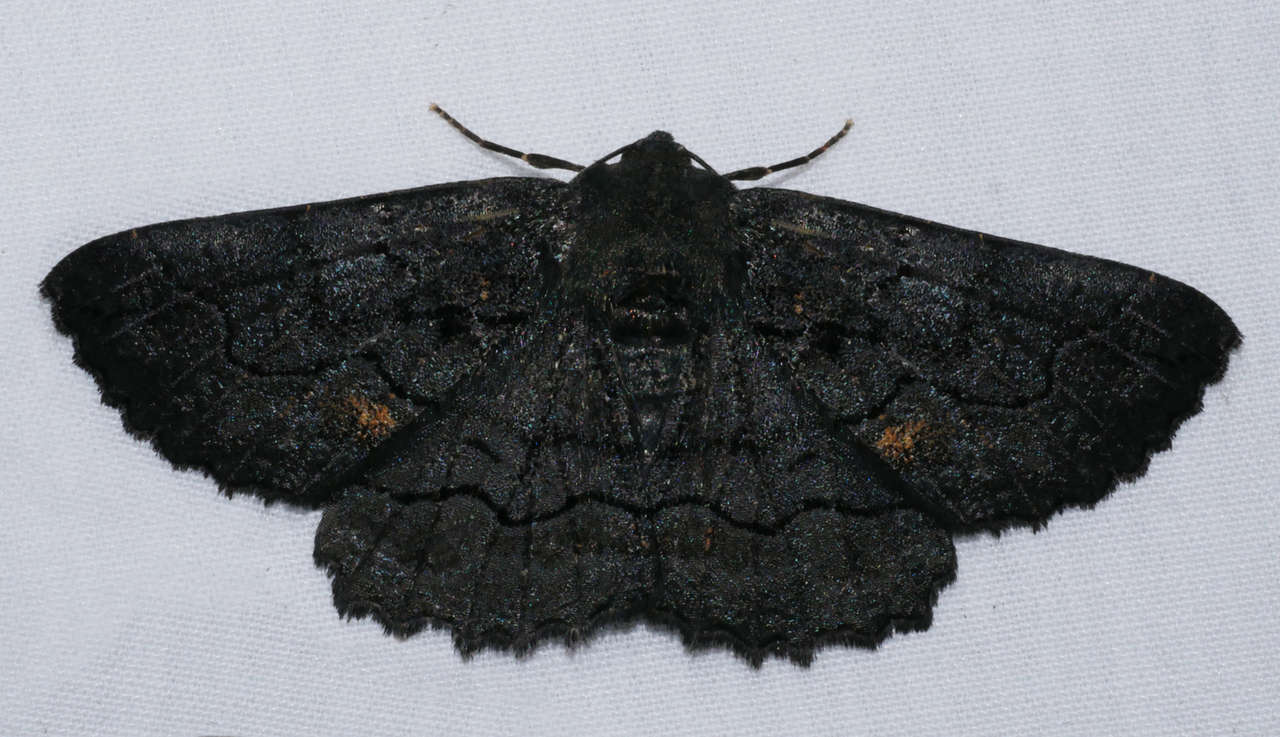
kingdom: Animalia
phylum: Arthropoda
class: Insecta
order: Lepidoptera
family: Geometridae
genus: Melanodes
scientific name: Melanodes anthracitaria
